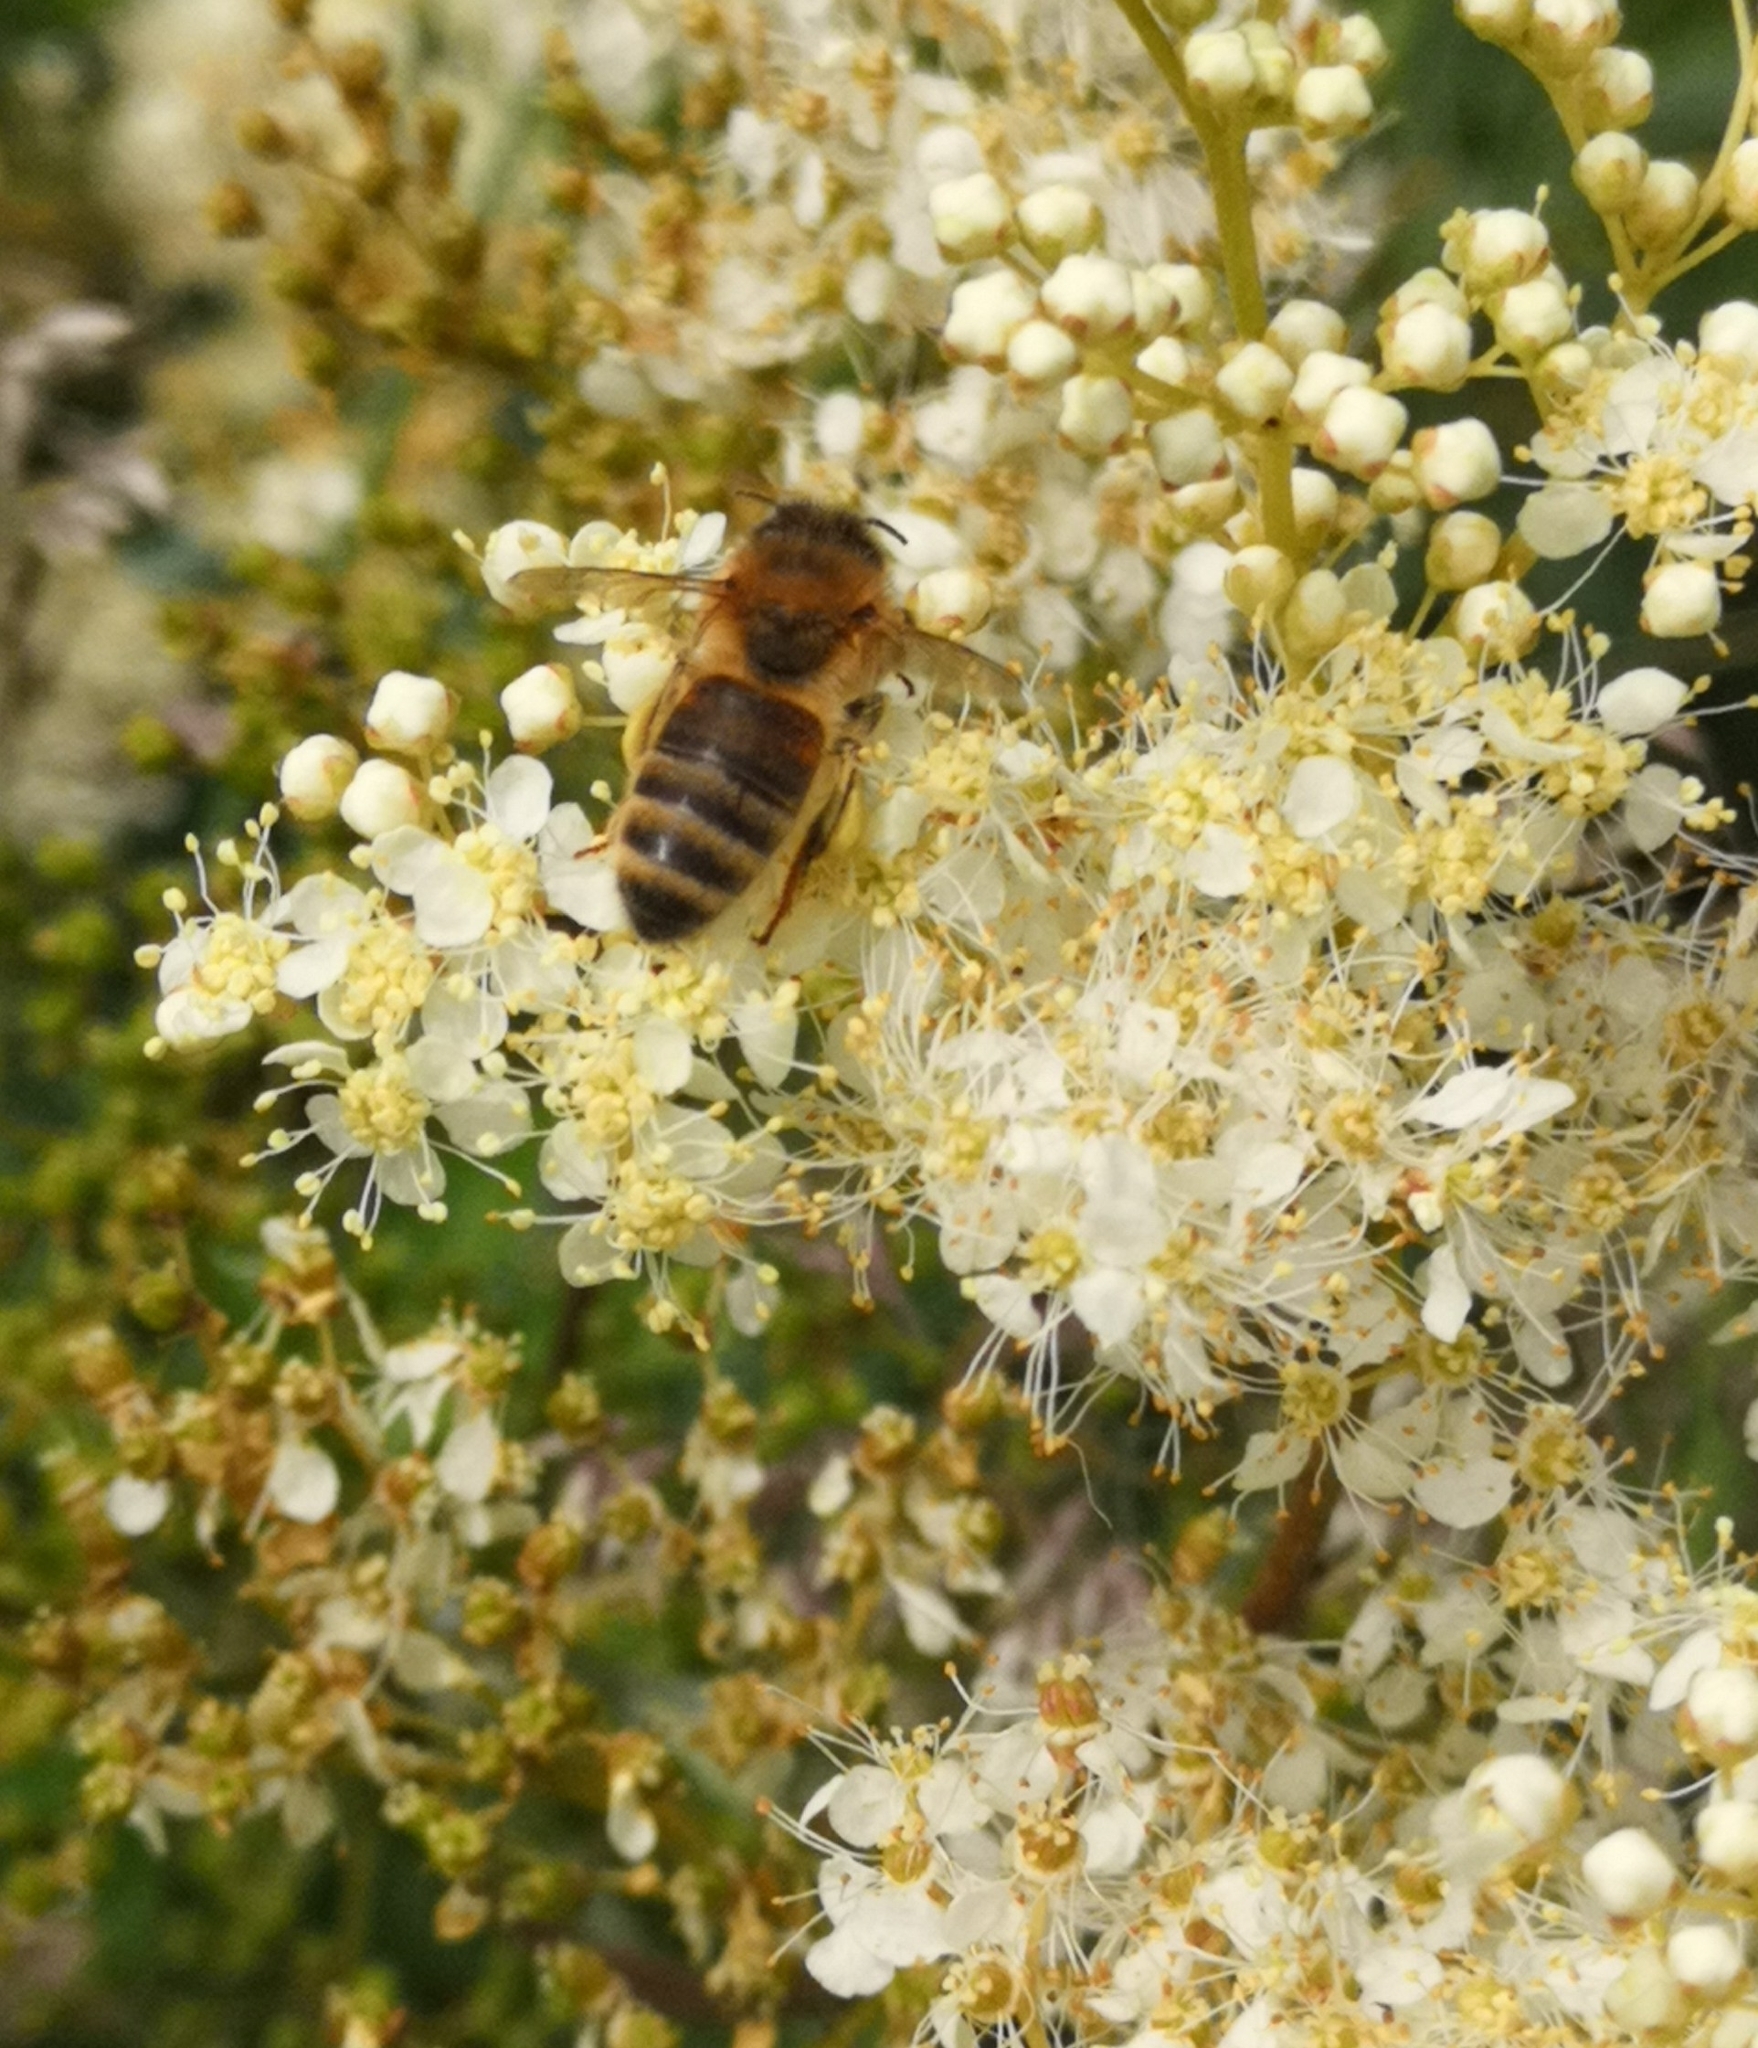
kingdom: Animalia
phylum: Arthropoda
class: Insecta
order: Hymenoptera
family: Apidae
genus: Apis
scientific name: Apis mellifera
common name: Honey bee
